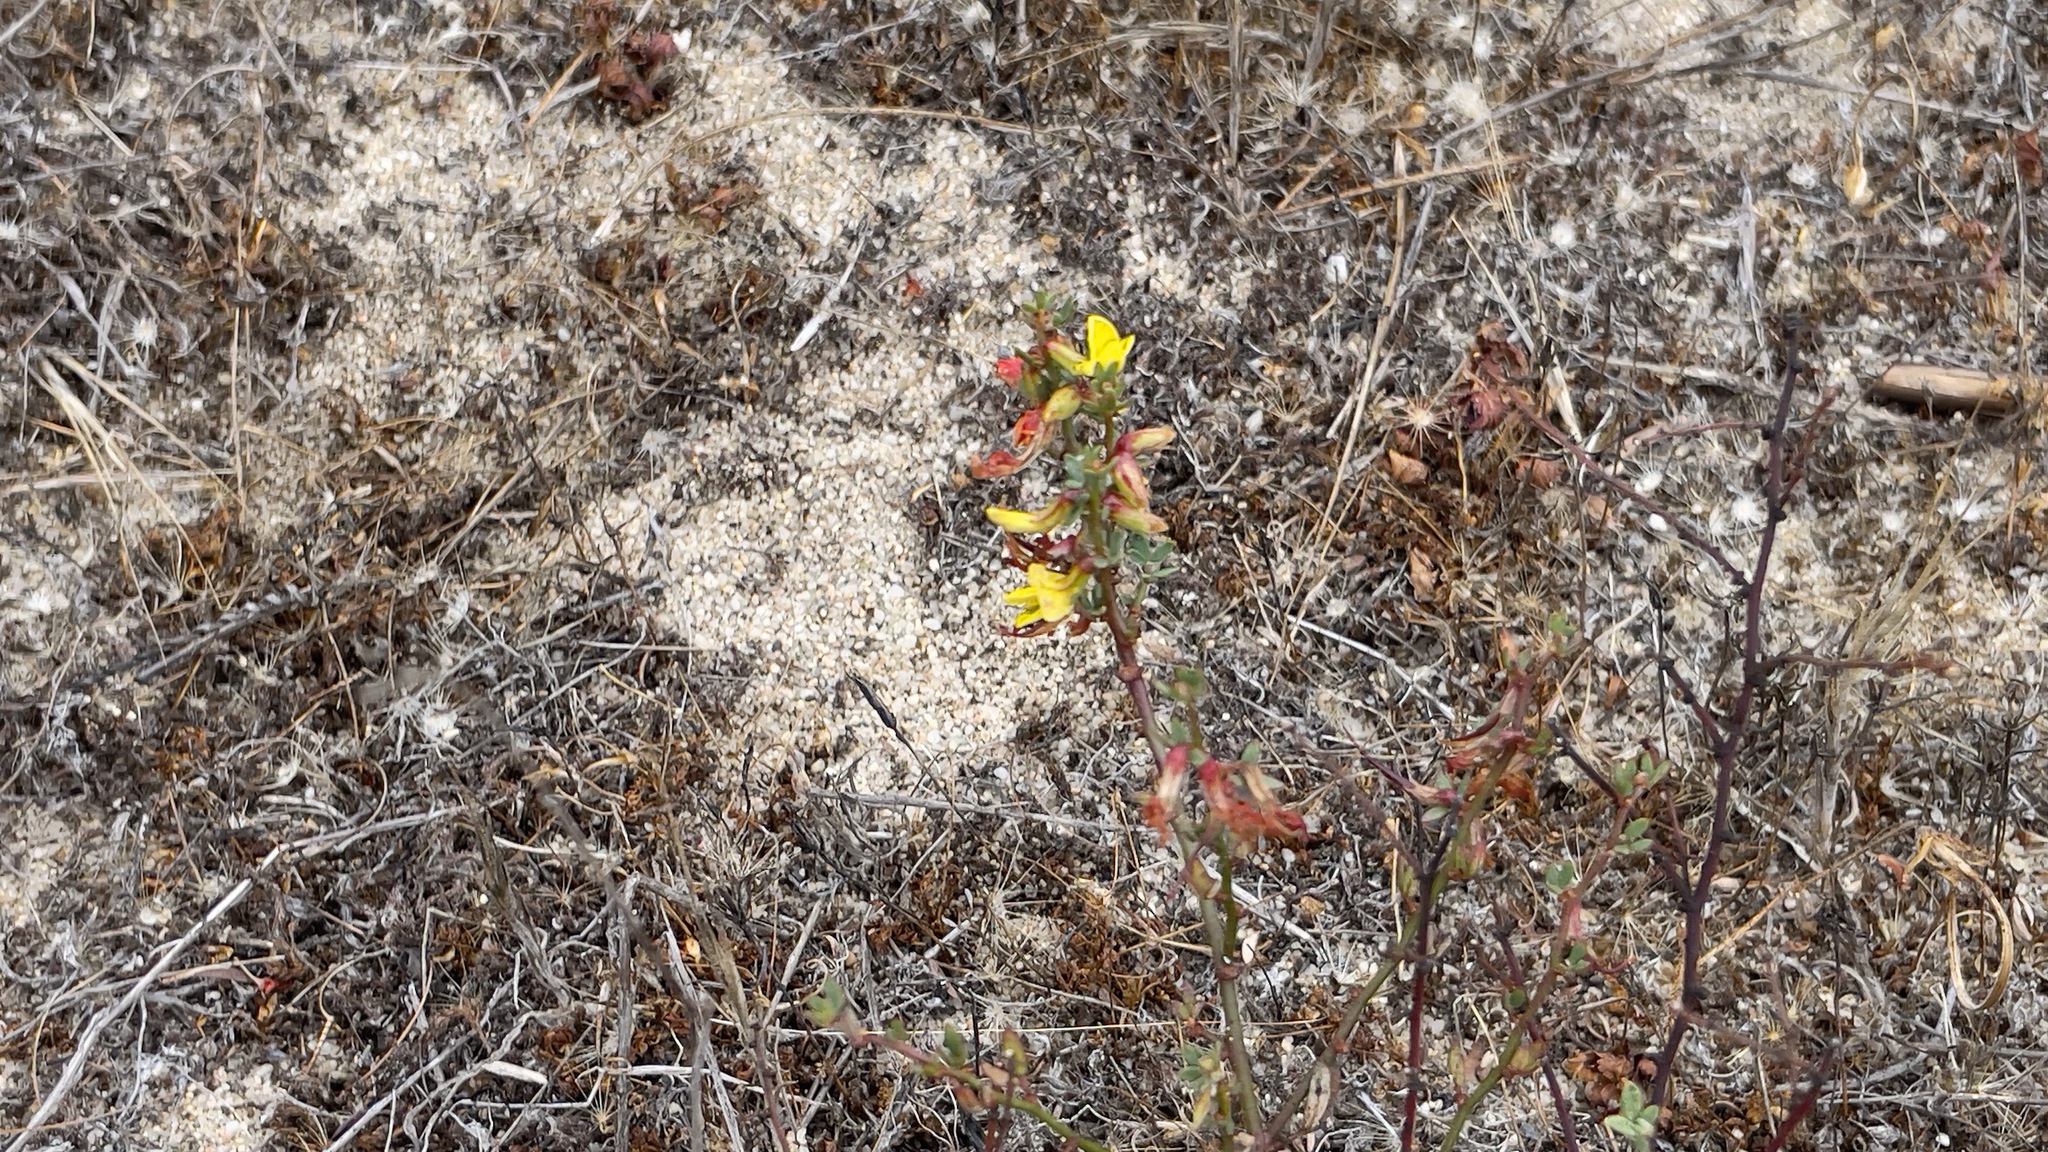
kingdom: Plantae
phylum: Tracheophyta
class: Magnoliopsida
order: Fabales
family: Fabaceae
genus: Acmispon
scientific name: Acmispon glaber
